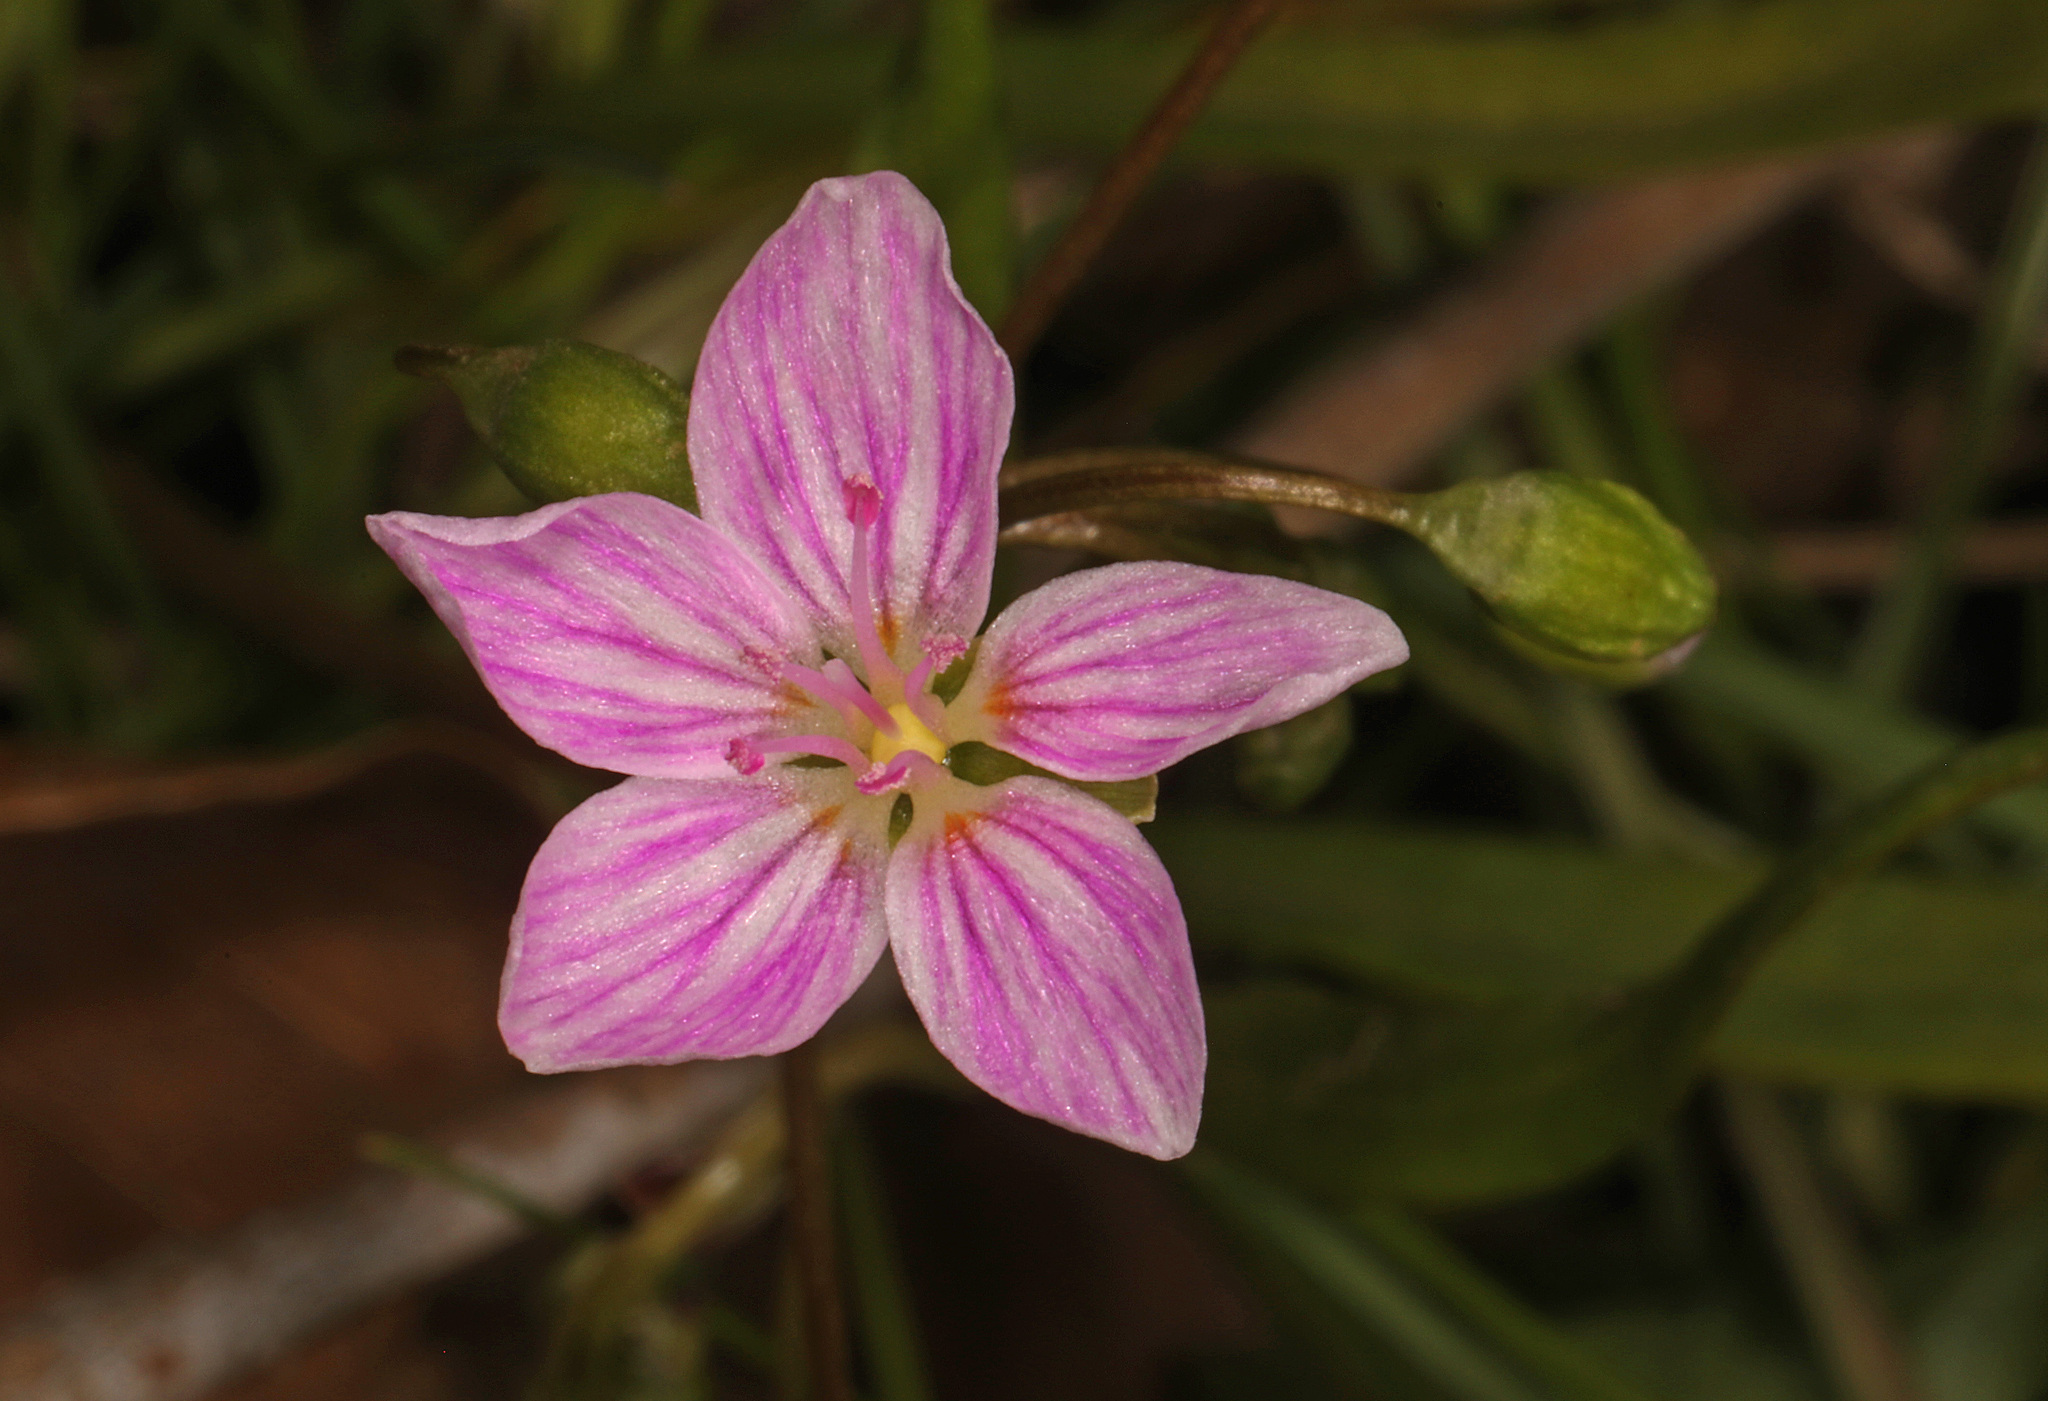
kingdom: Plantae
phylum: Tracheophyta
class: Magnoliopsida
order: Caryophyllales
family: Montiaceae
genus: Claytonia
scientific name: Claytonia virginica
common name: Virginia springbeauty
